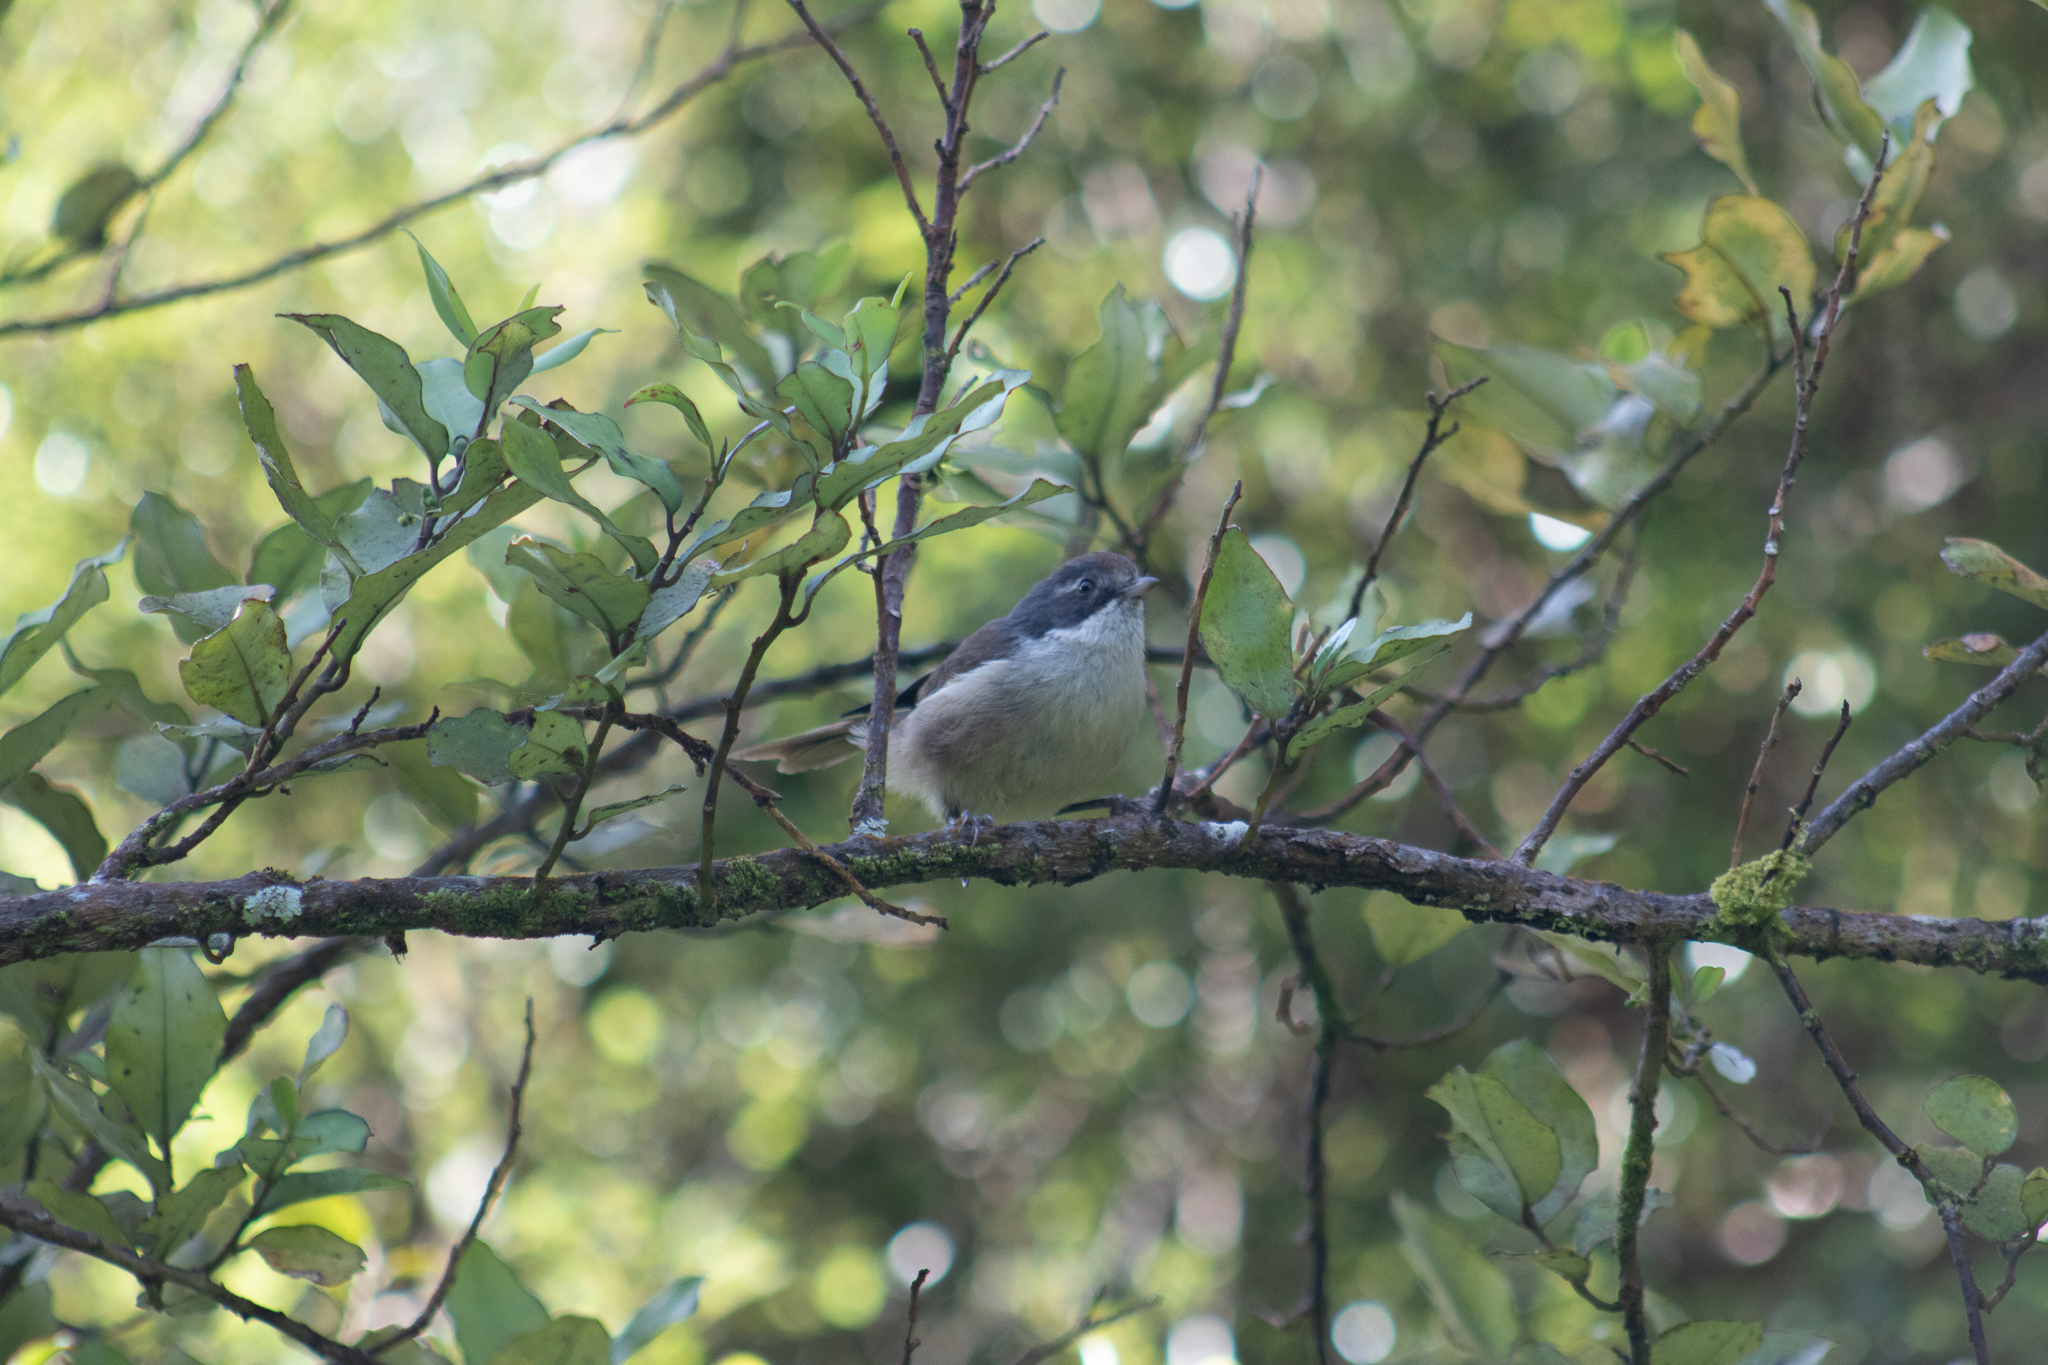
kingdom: Animalia
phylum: Chordata
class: Aves
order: Passeriformes
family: Acanthizidae
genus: Finschia
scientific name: Finschia novaeseelandiae
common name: Pipipi
